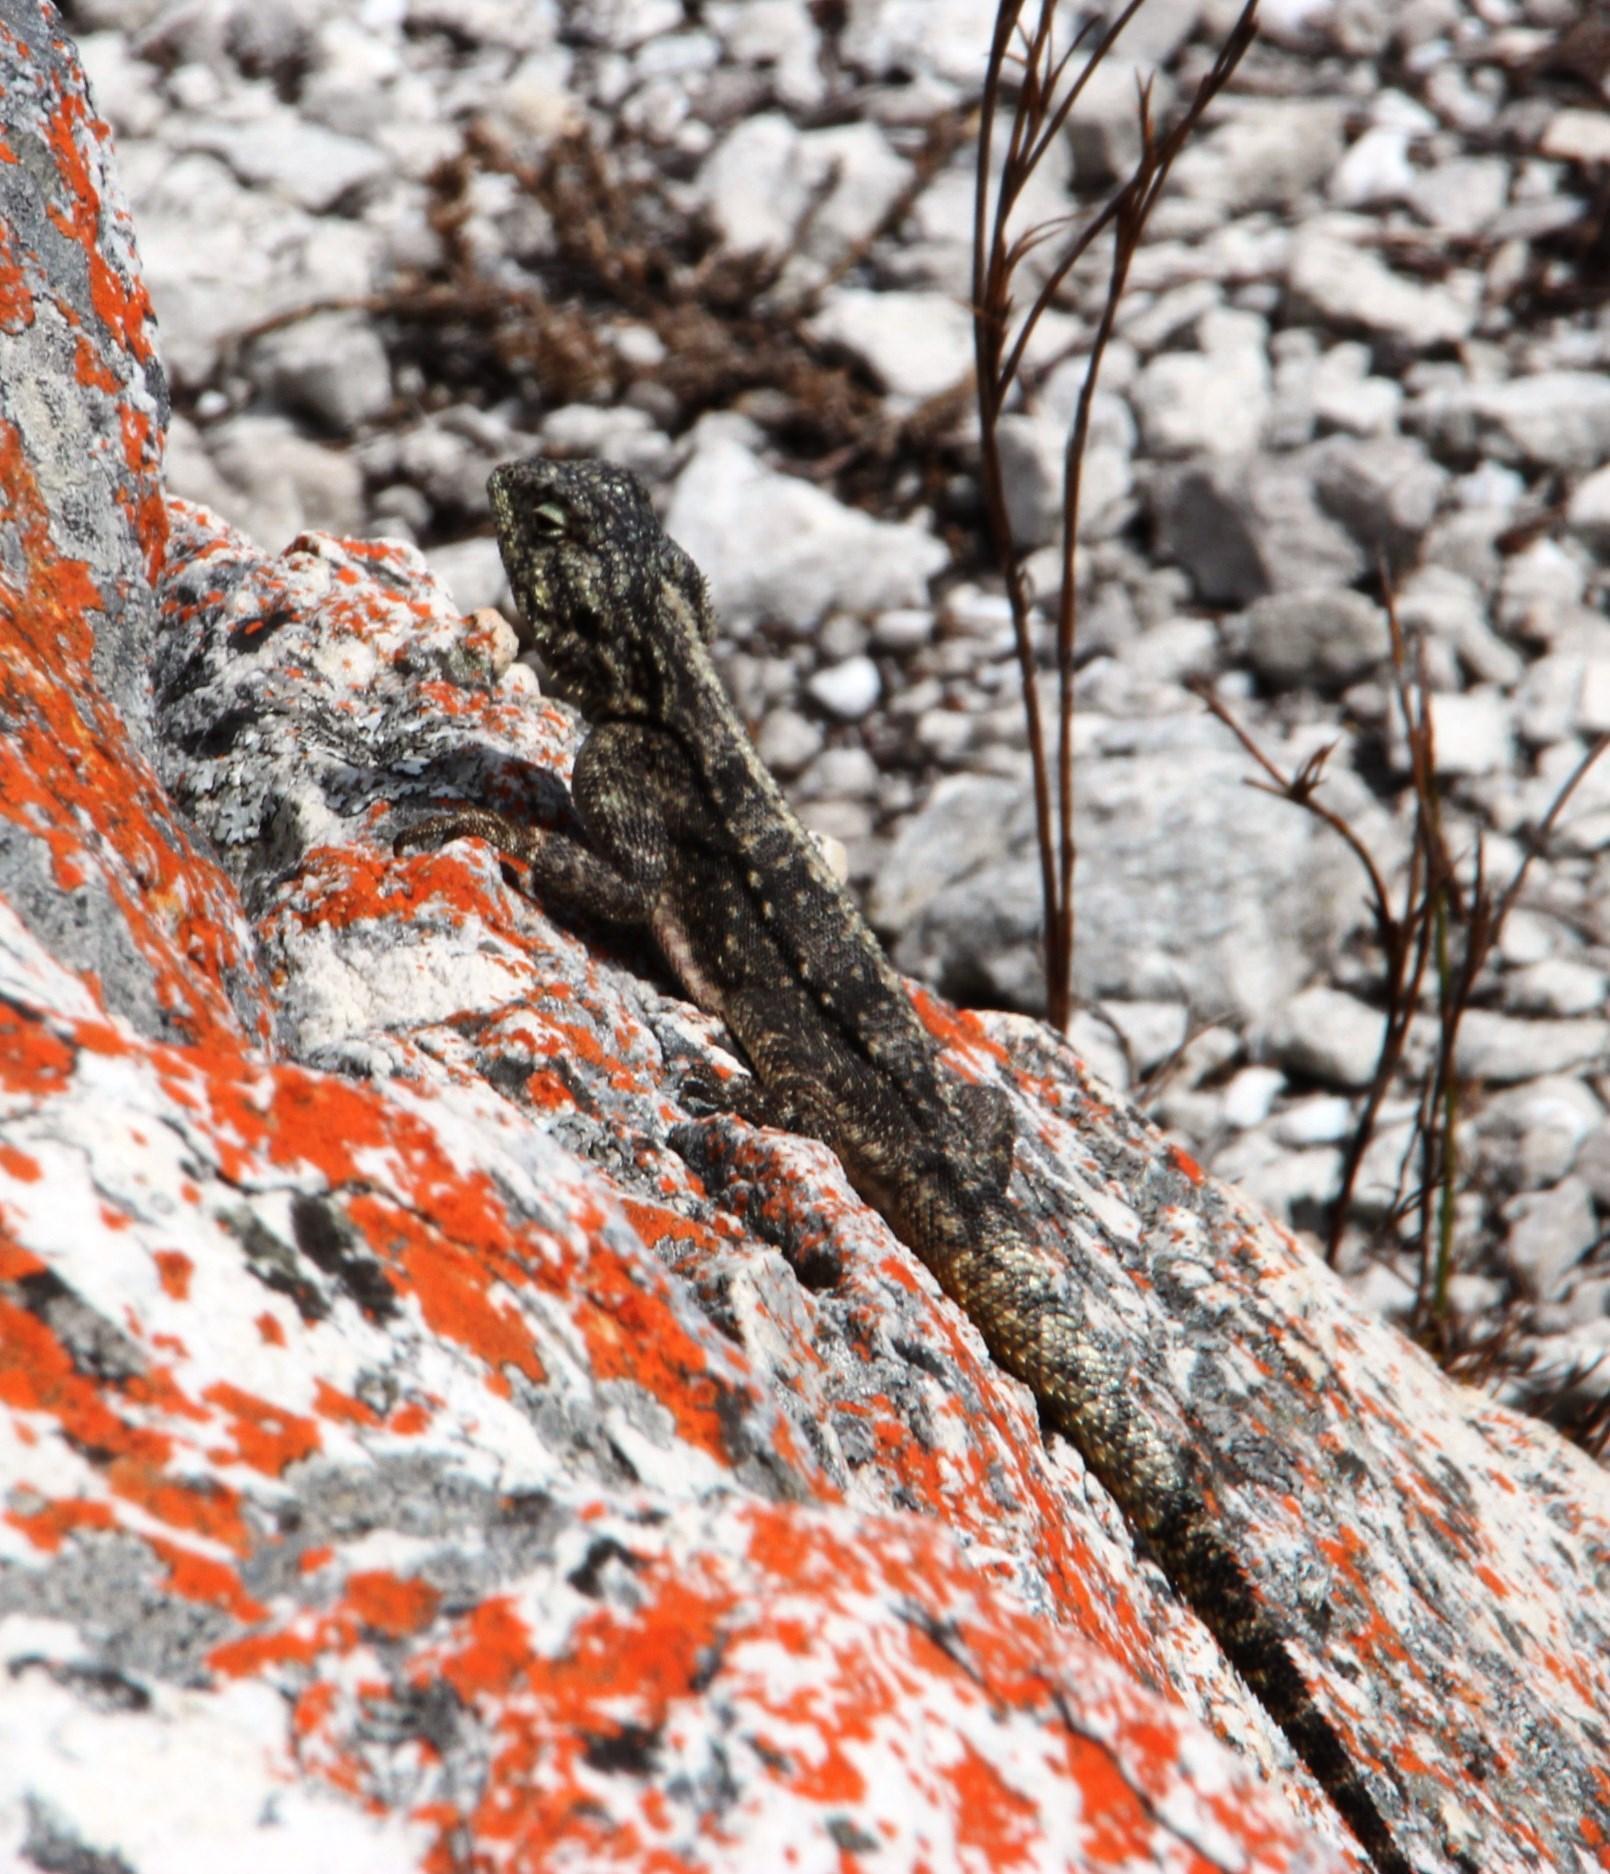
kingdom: Animalia
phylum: Chordata
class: Squamata
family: Agamidae
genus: Agama
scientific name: Agama atra
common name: Southern african rock agama
